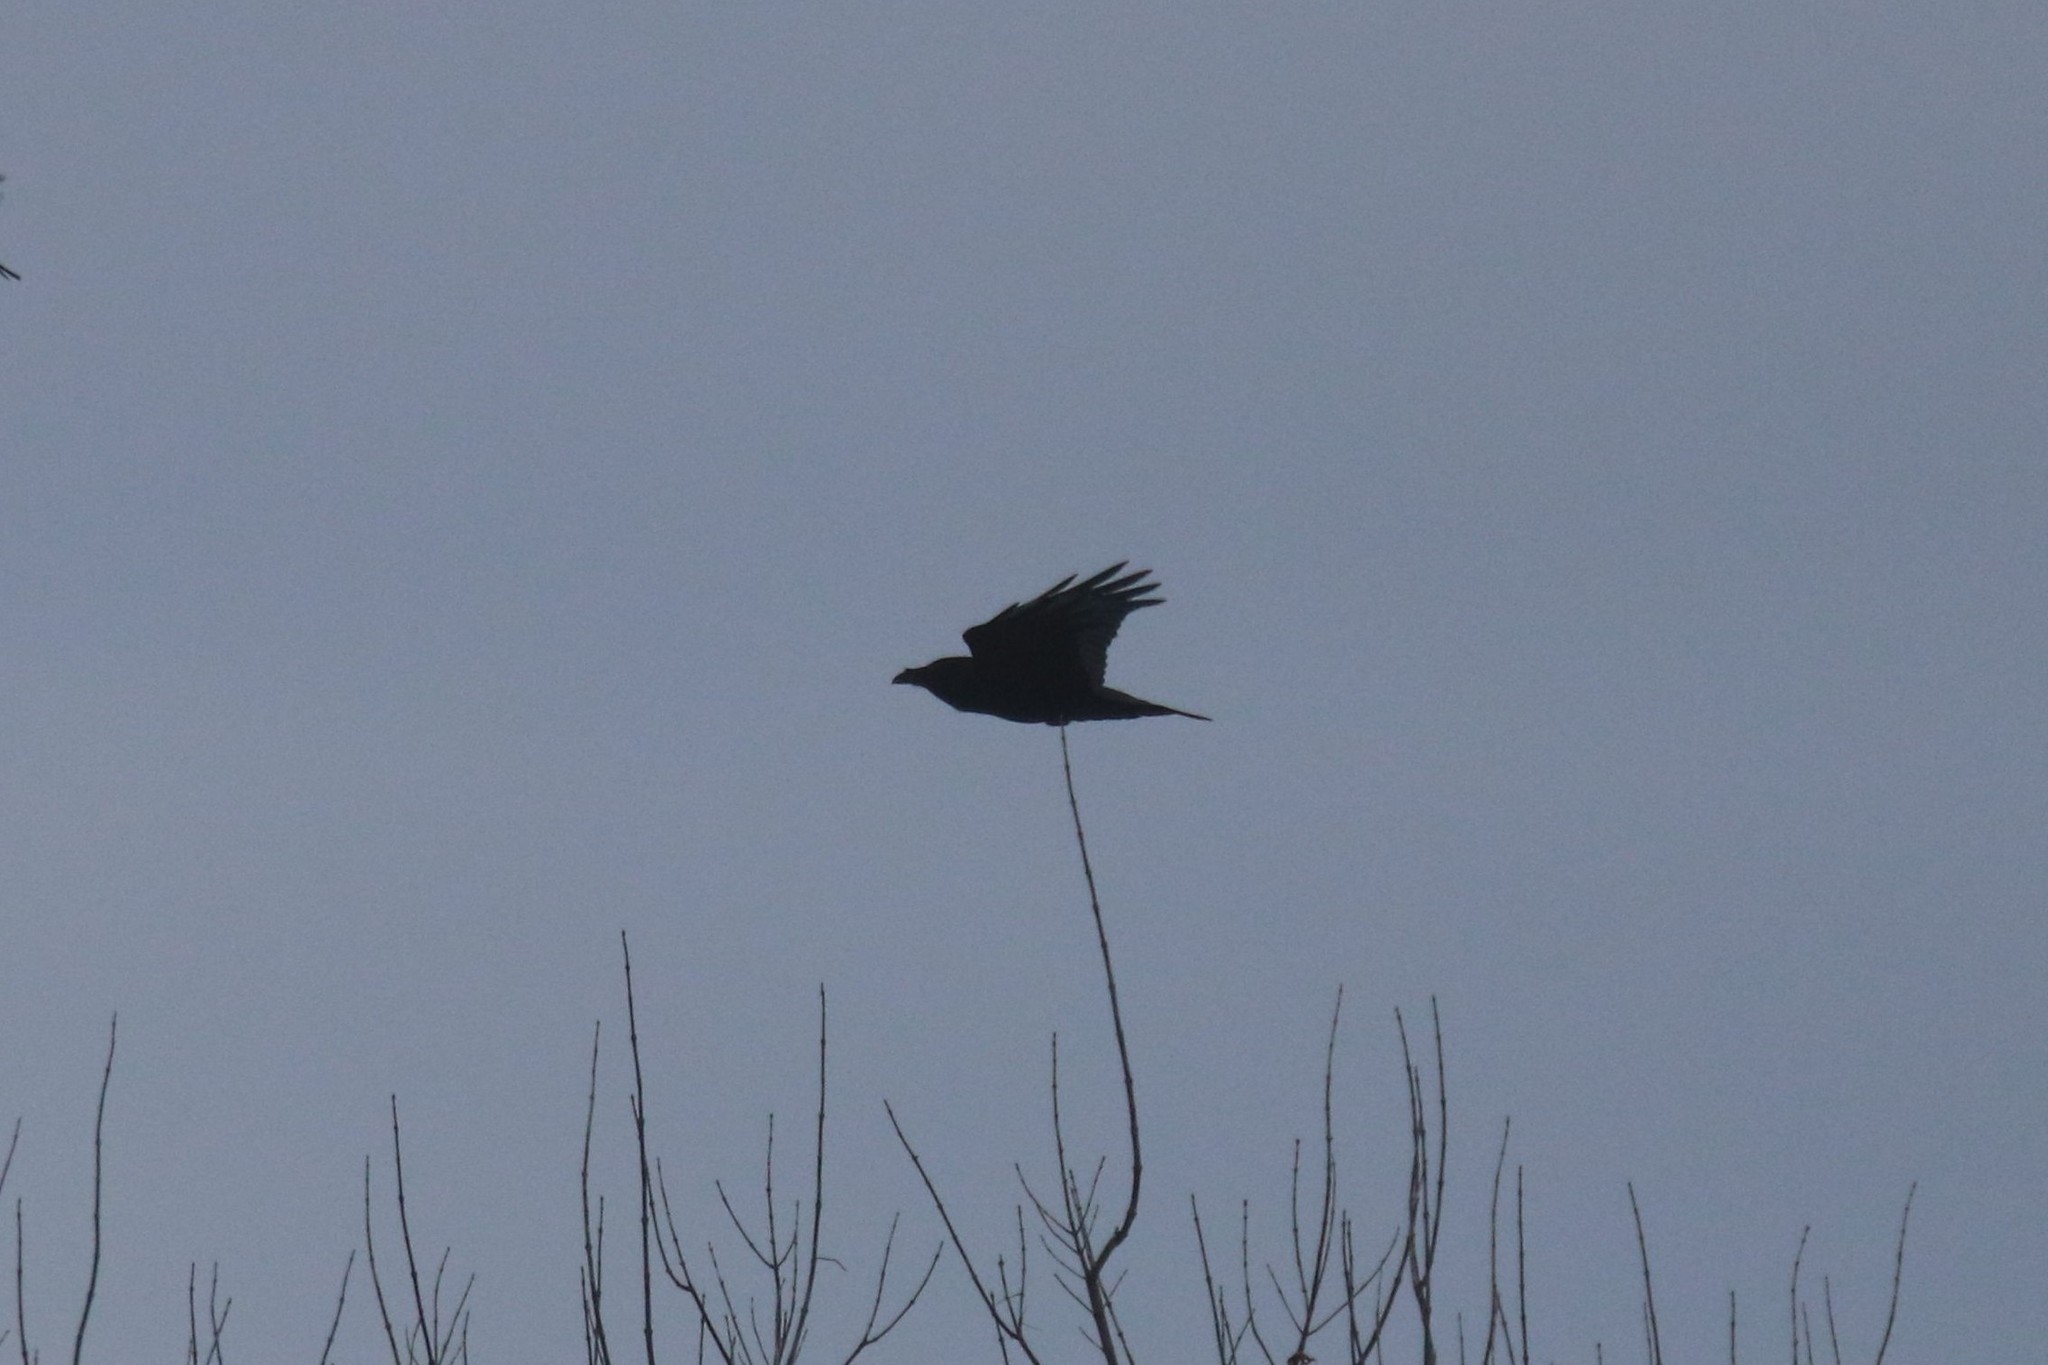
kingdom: Animalia
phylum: Chordata
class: Aves
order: Passeriformes
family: Corvidae
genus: Corvus
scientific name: Corvus corax
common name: Common raven
